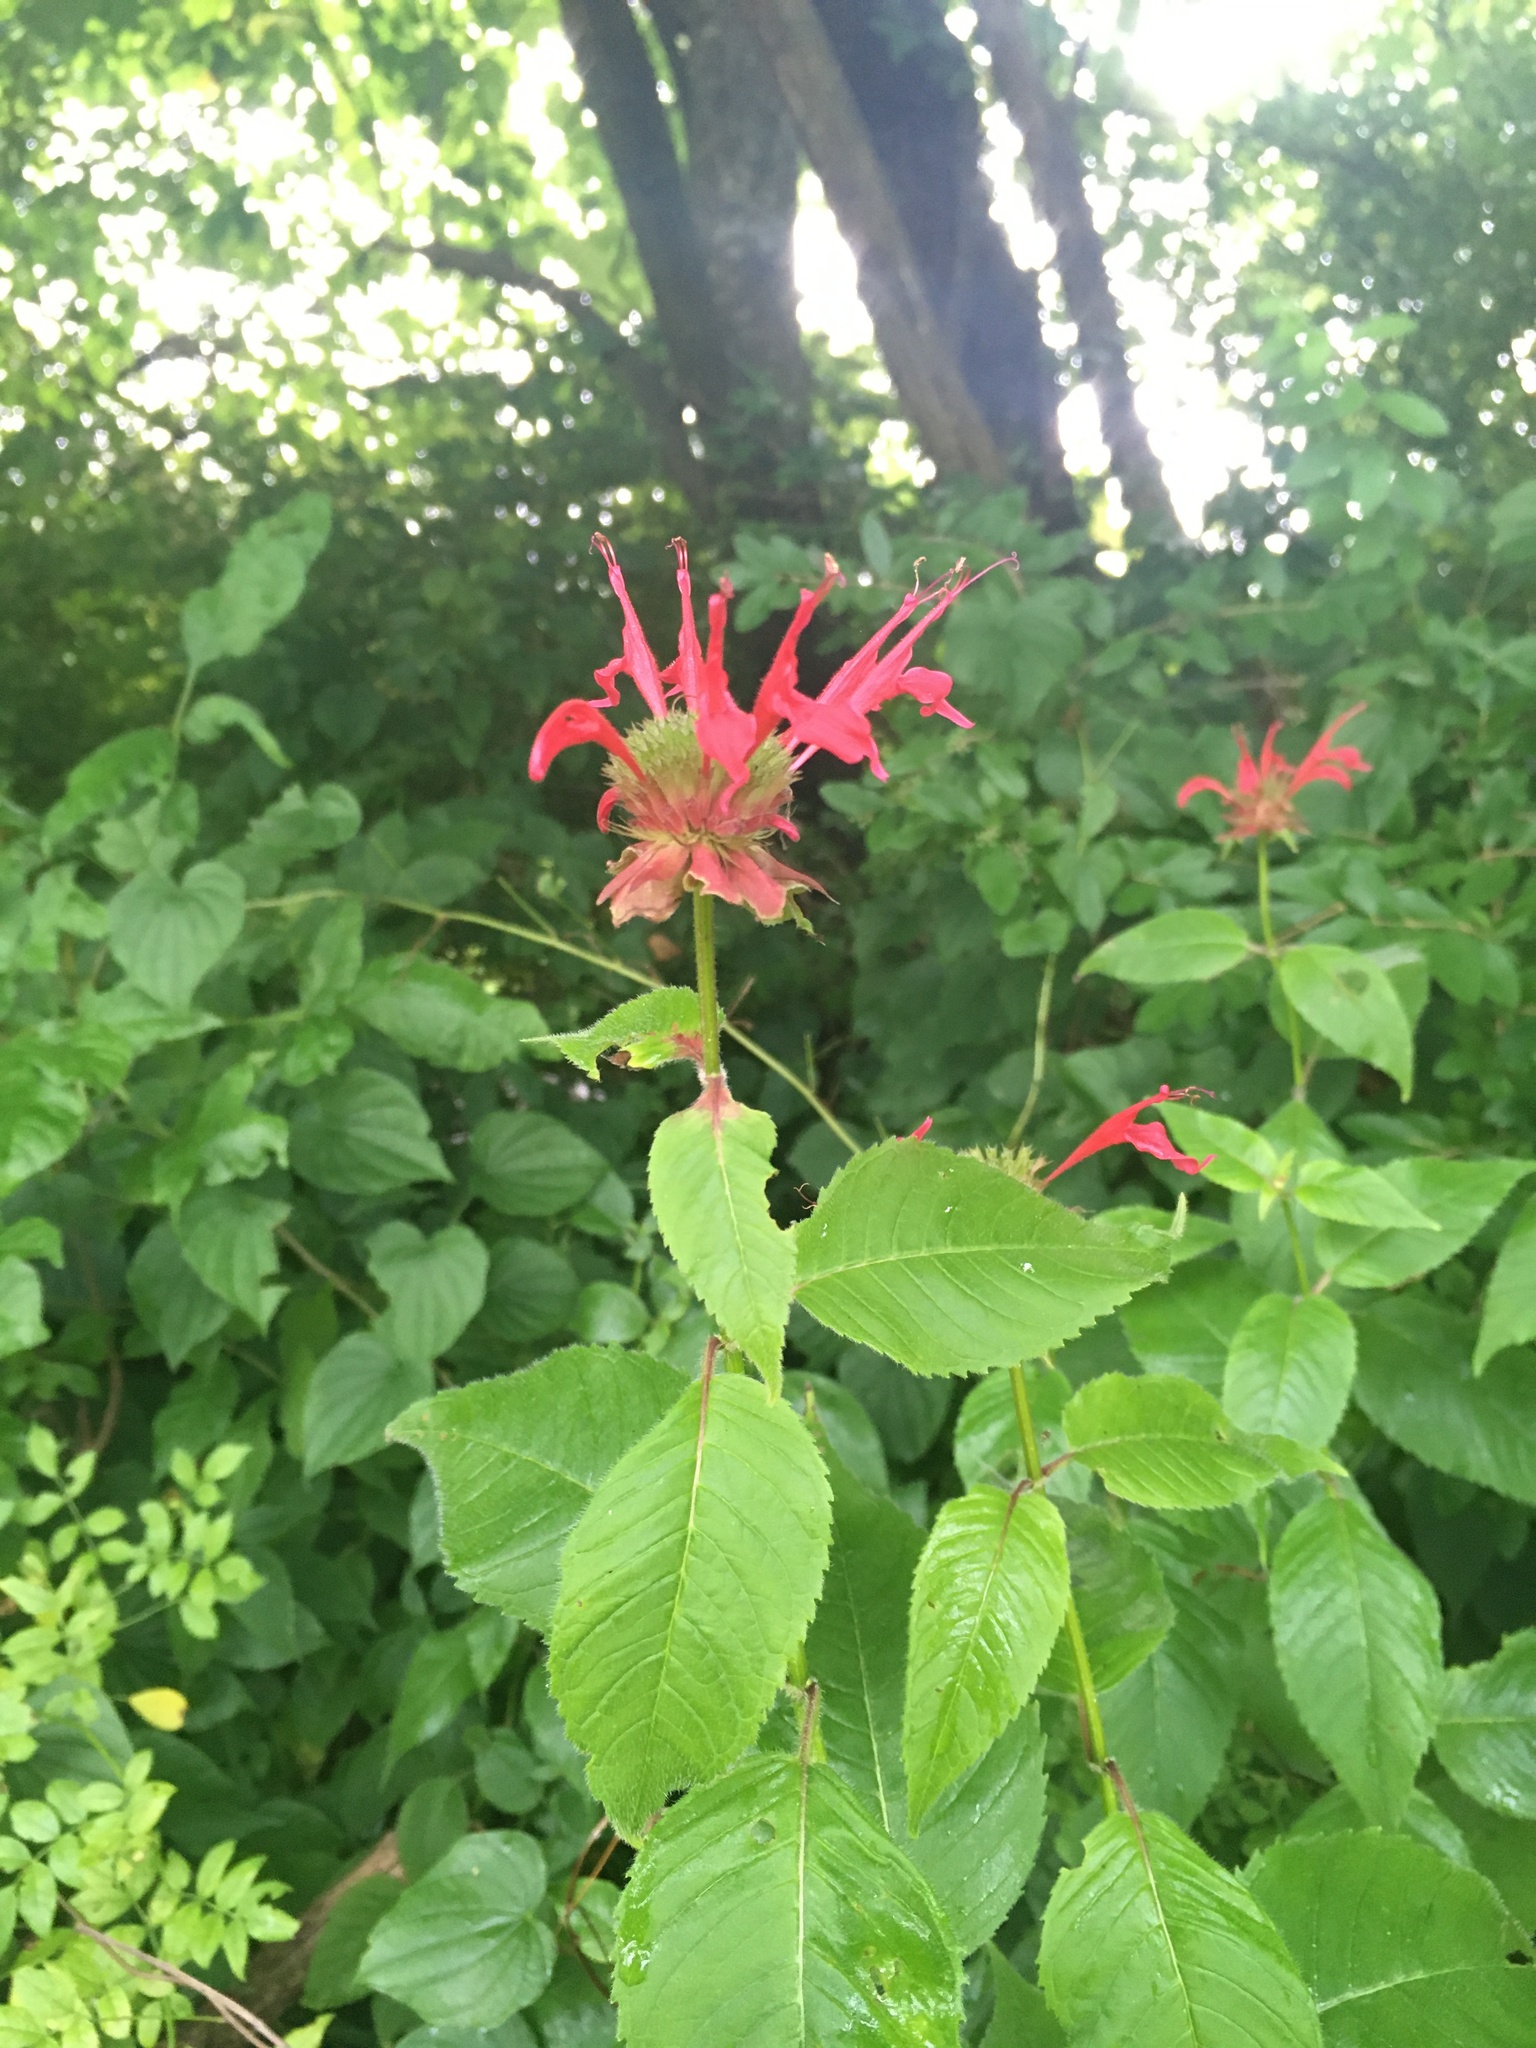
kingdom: Plantae
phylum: Tracheophyta
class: Magnoliopsida
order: Lamiales
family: Lamiaceae
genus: Monarda
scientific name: Monarda didyma
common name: Beebalm
